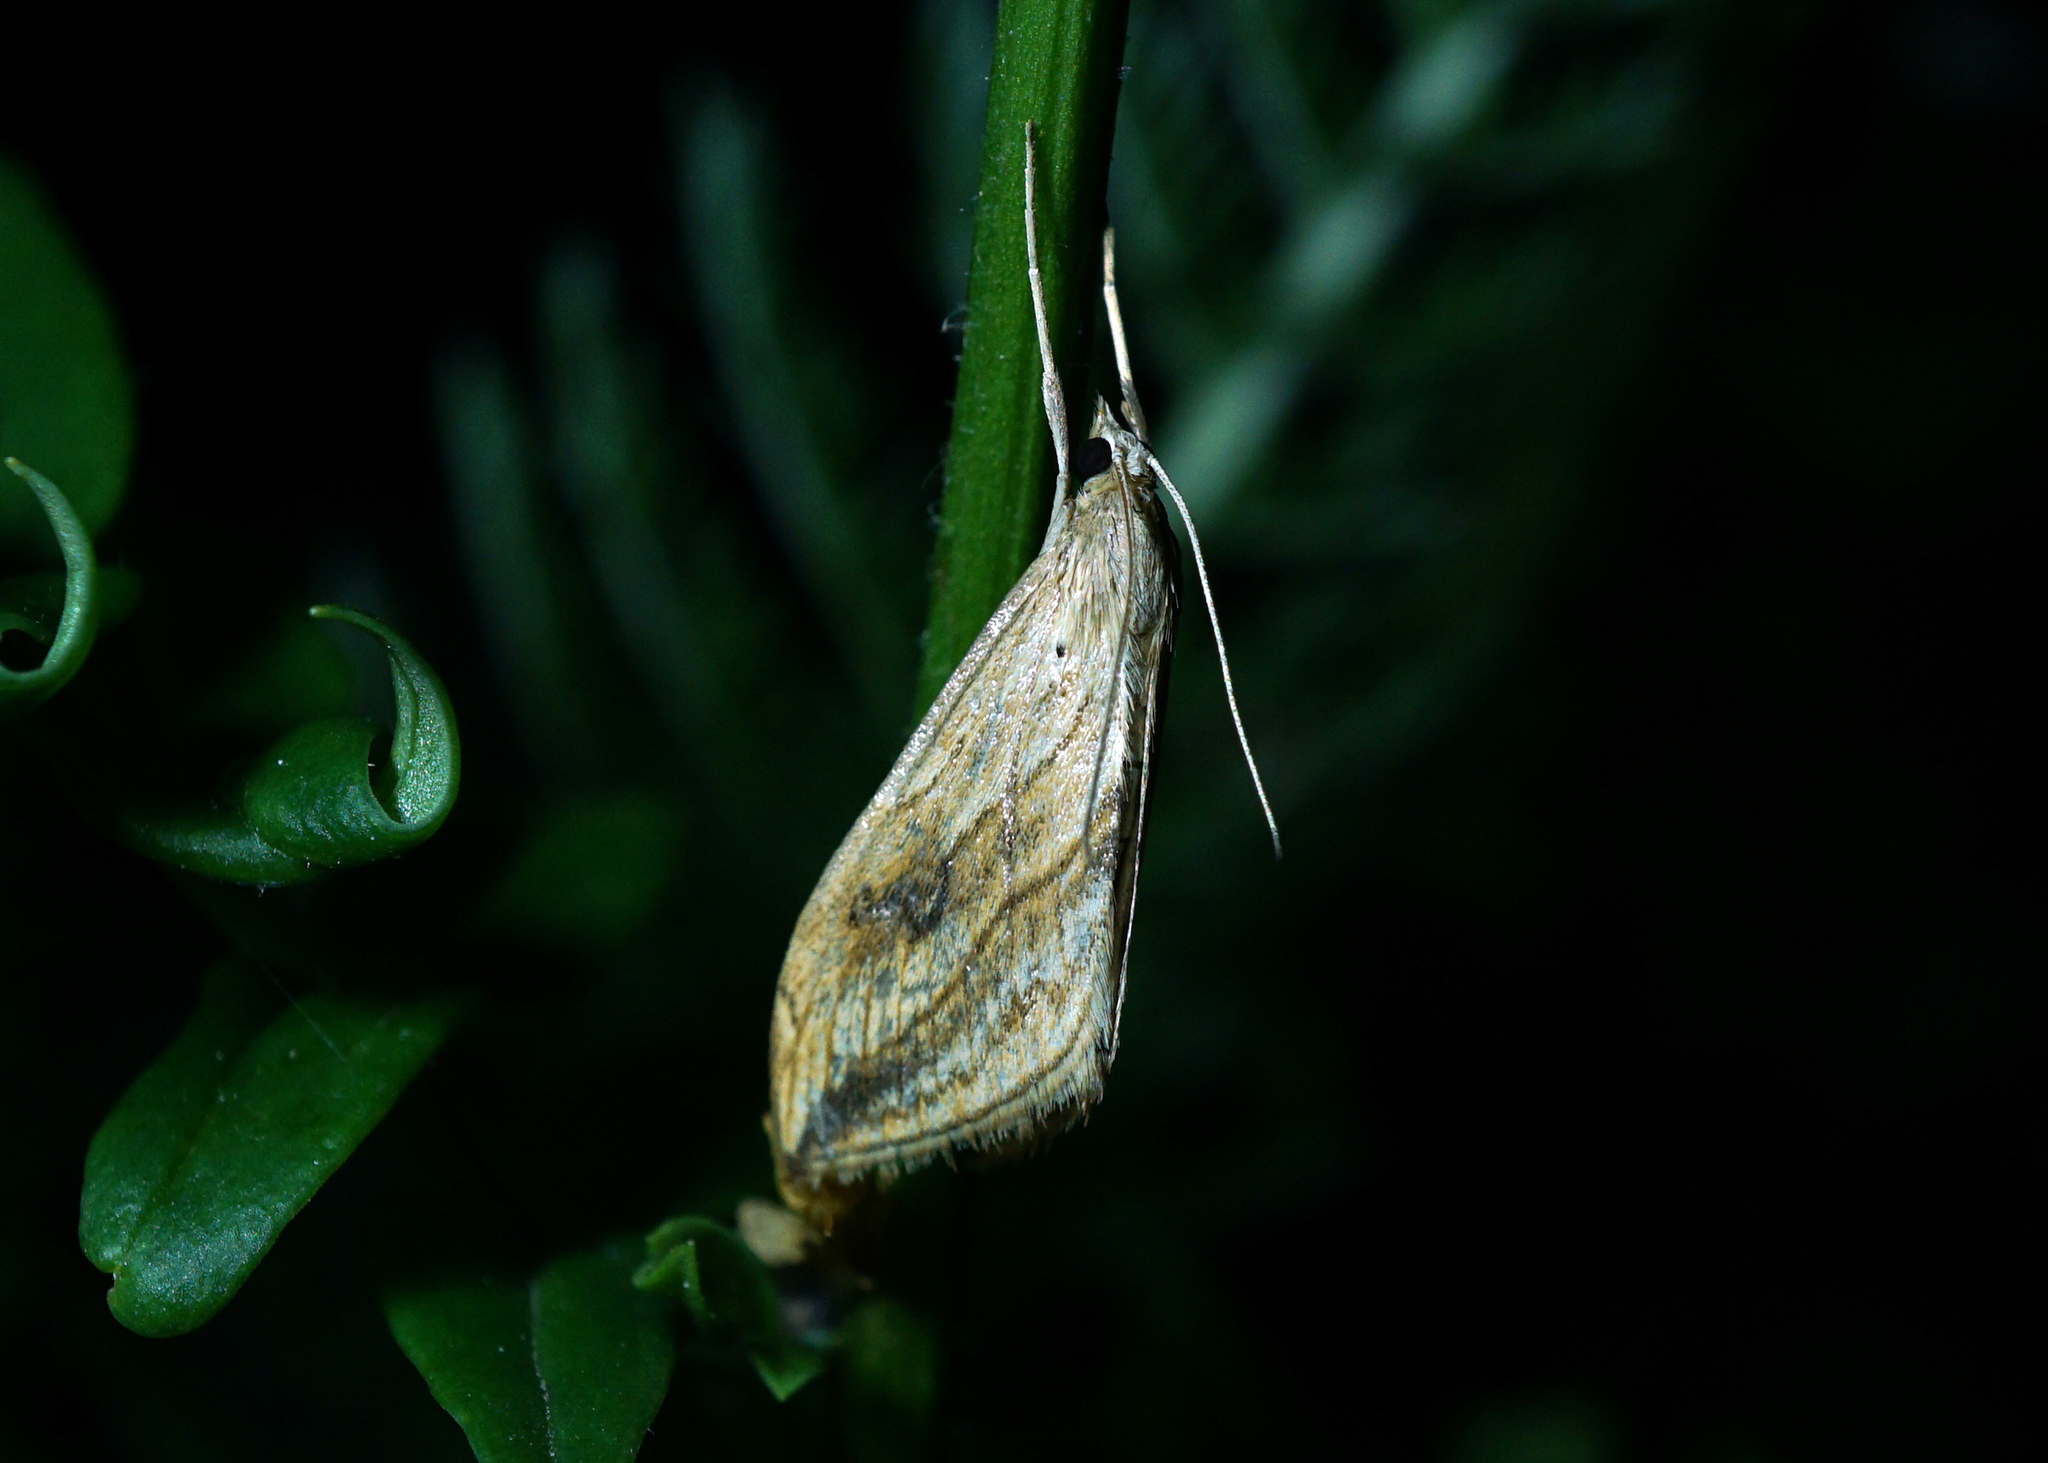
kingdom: Animalia
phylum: Arthropoda
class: Insecta
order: Lepidoptera
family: Crambidae
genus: Evergestis
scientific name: Evergestis forficalis
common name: Garden pebble
